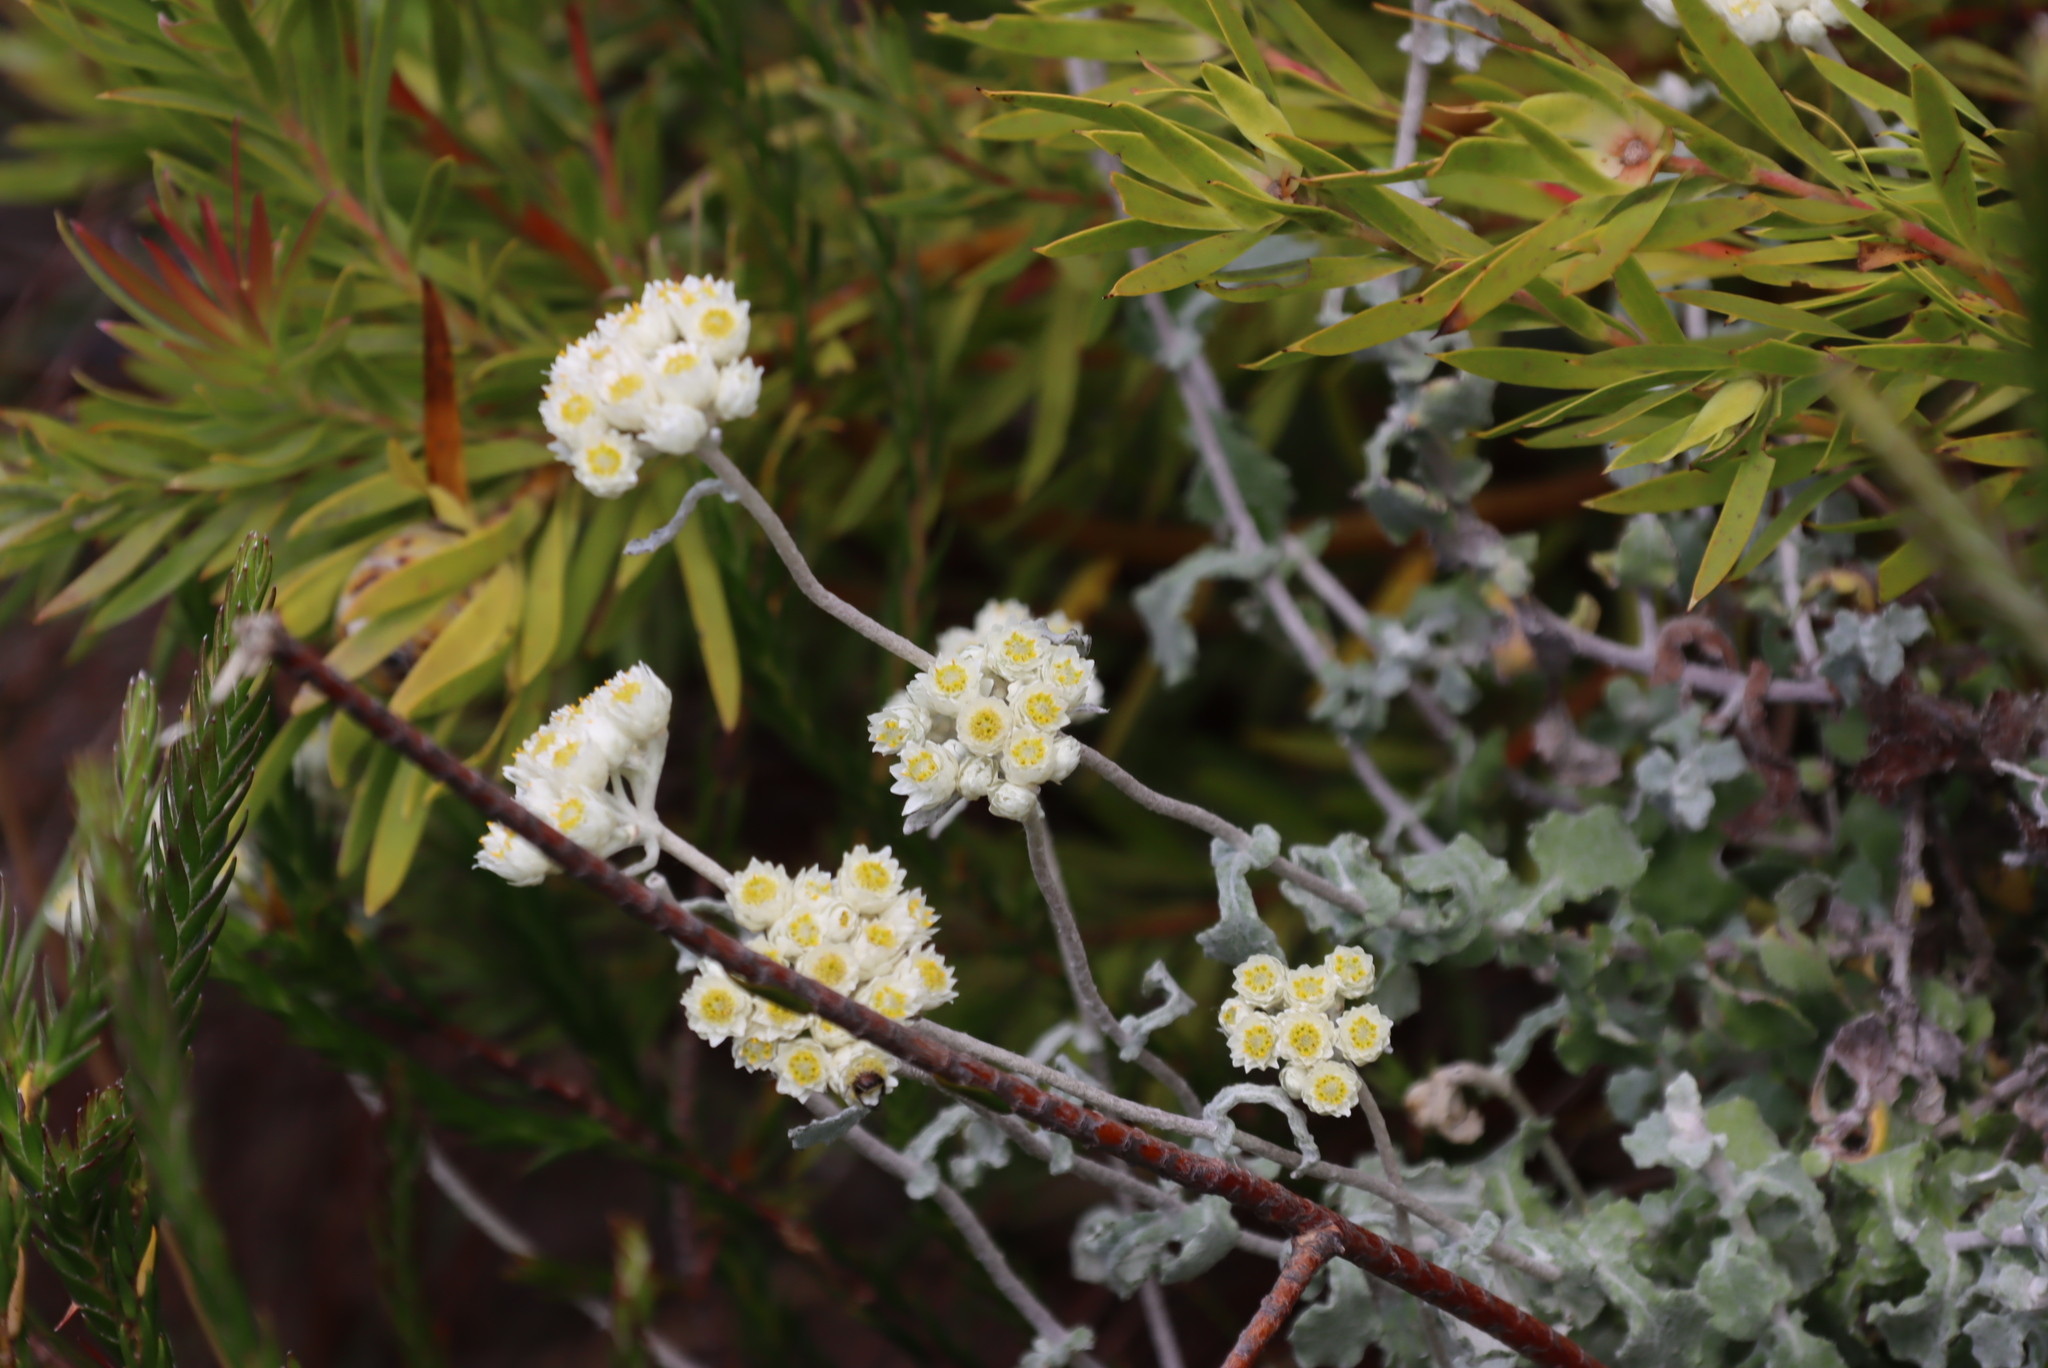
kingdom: Plantae
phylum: Tracheophyta
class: Magnoliopsida
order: Asterales
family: Asteraceae
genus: Helichrysum
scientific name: Helichrysum pandurifolium
